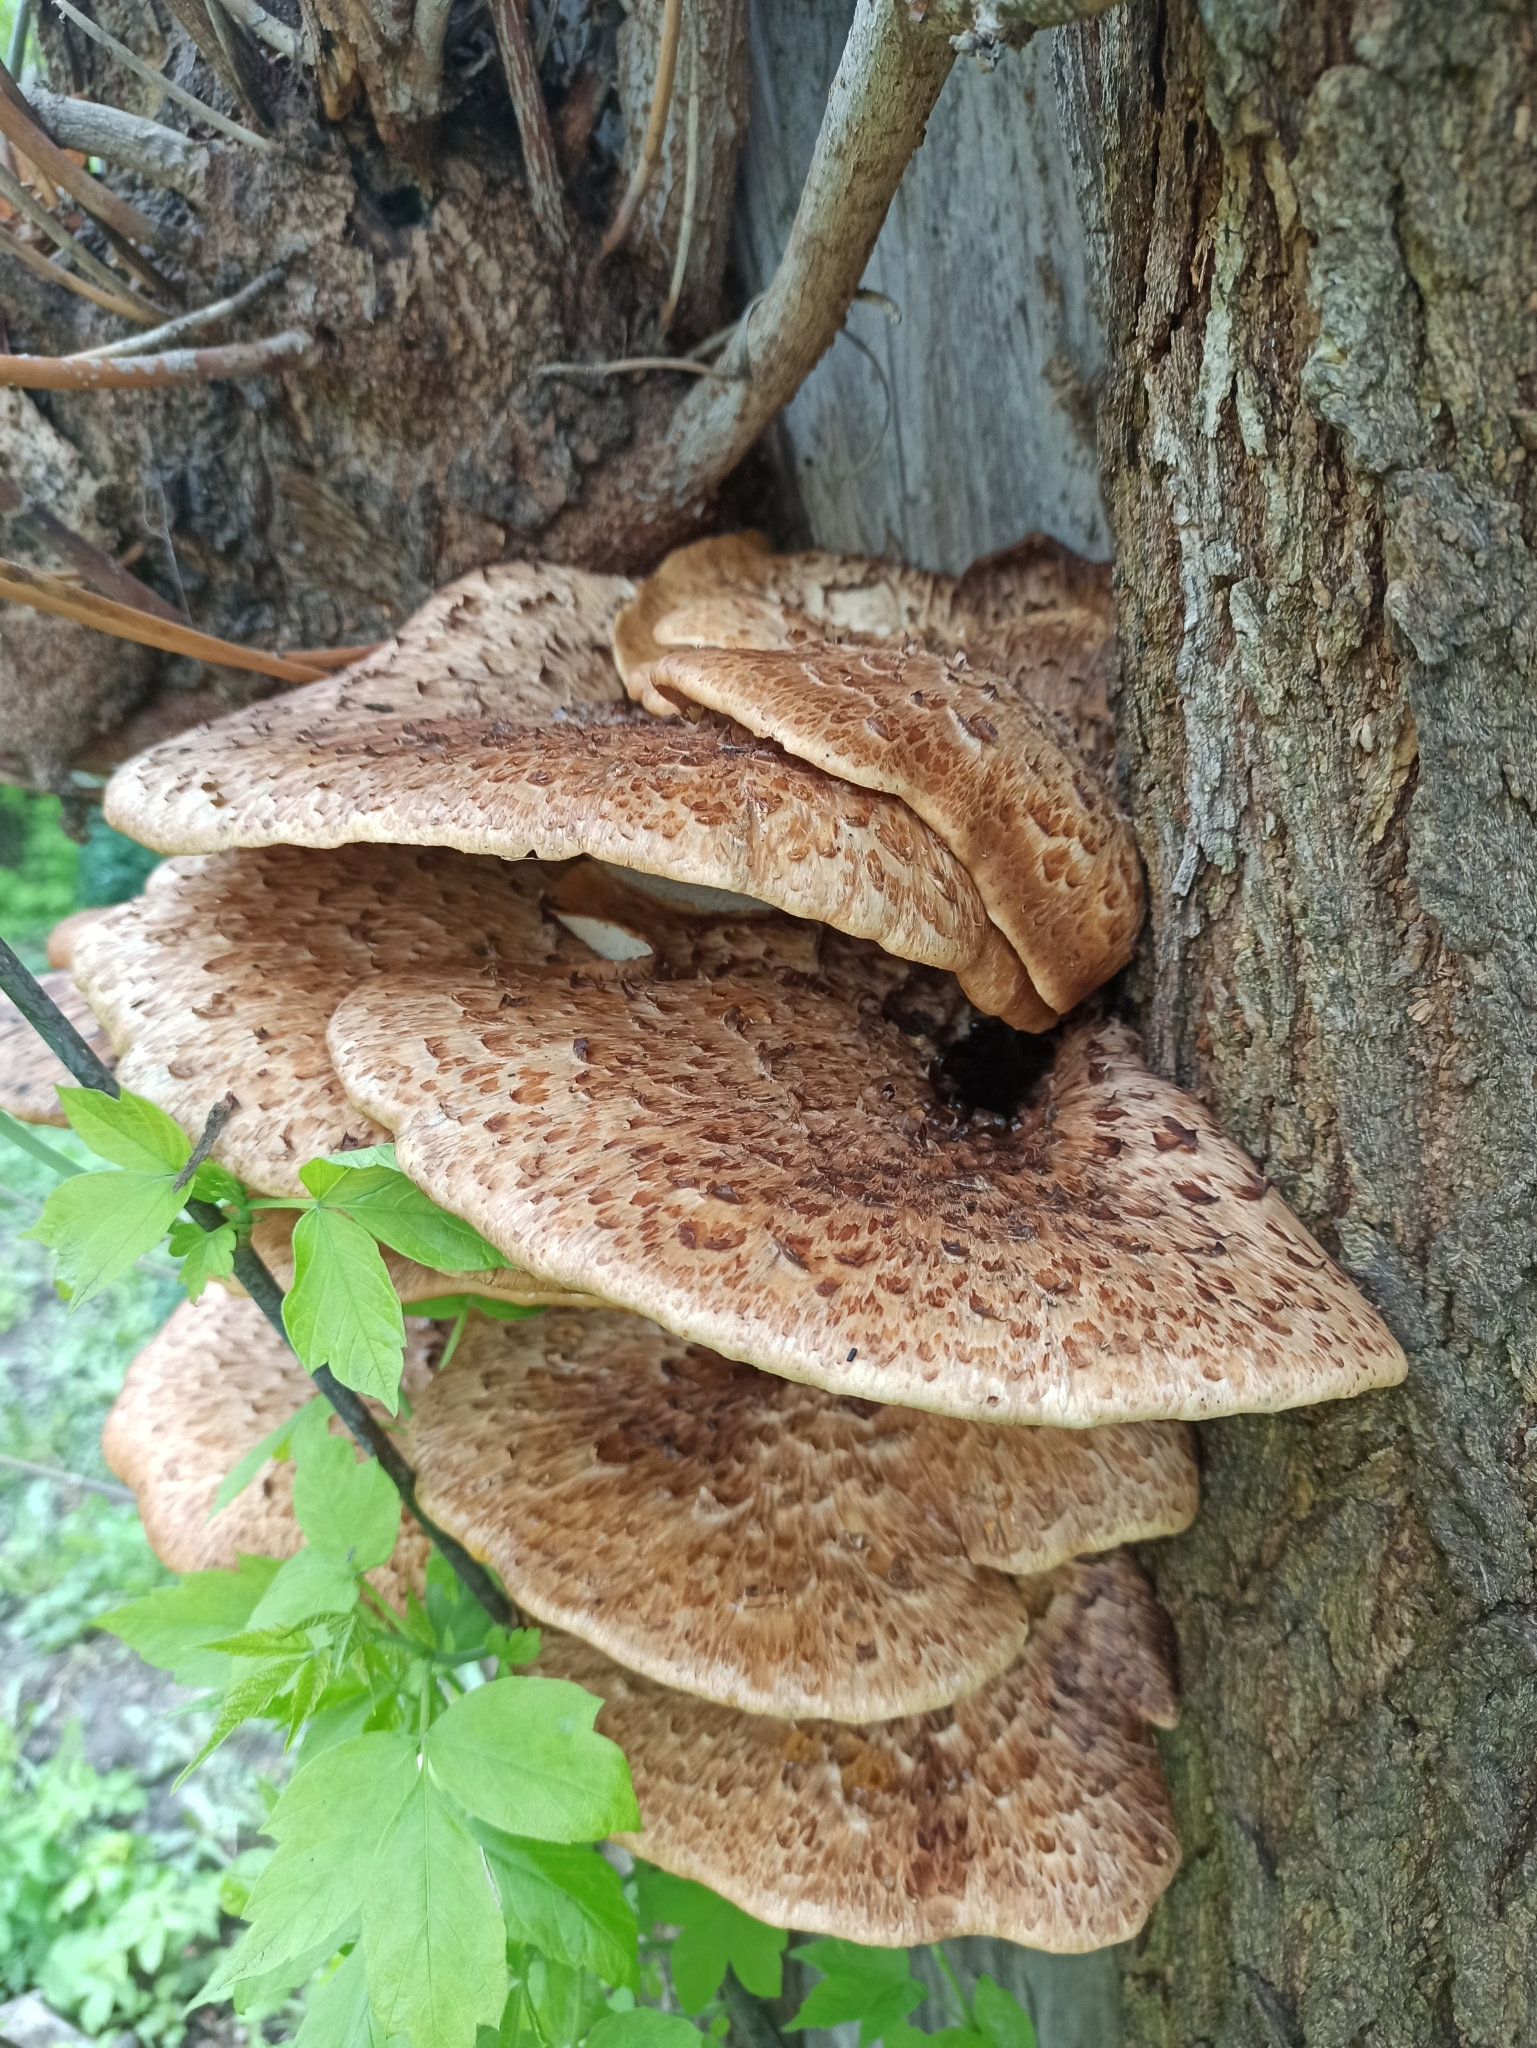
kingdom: Fungi
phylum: Basidiomycota
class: Agaricomycetes
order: Polyporales
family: Polyporaceae
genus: Cerioporus
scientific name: Cerioporus squamosus
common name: Dryad's saddle
